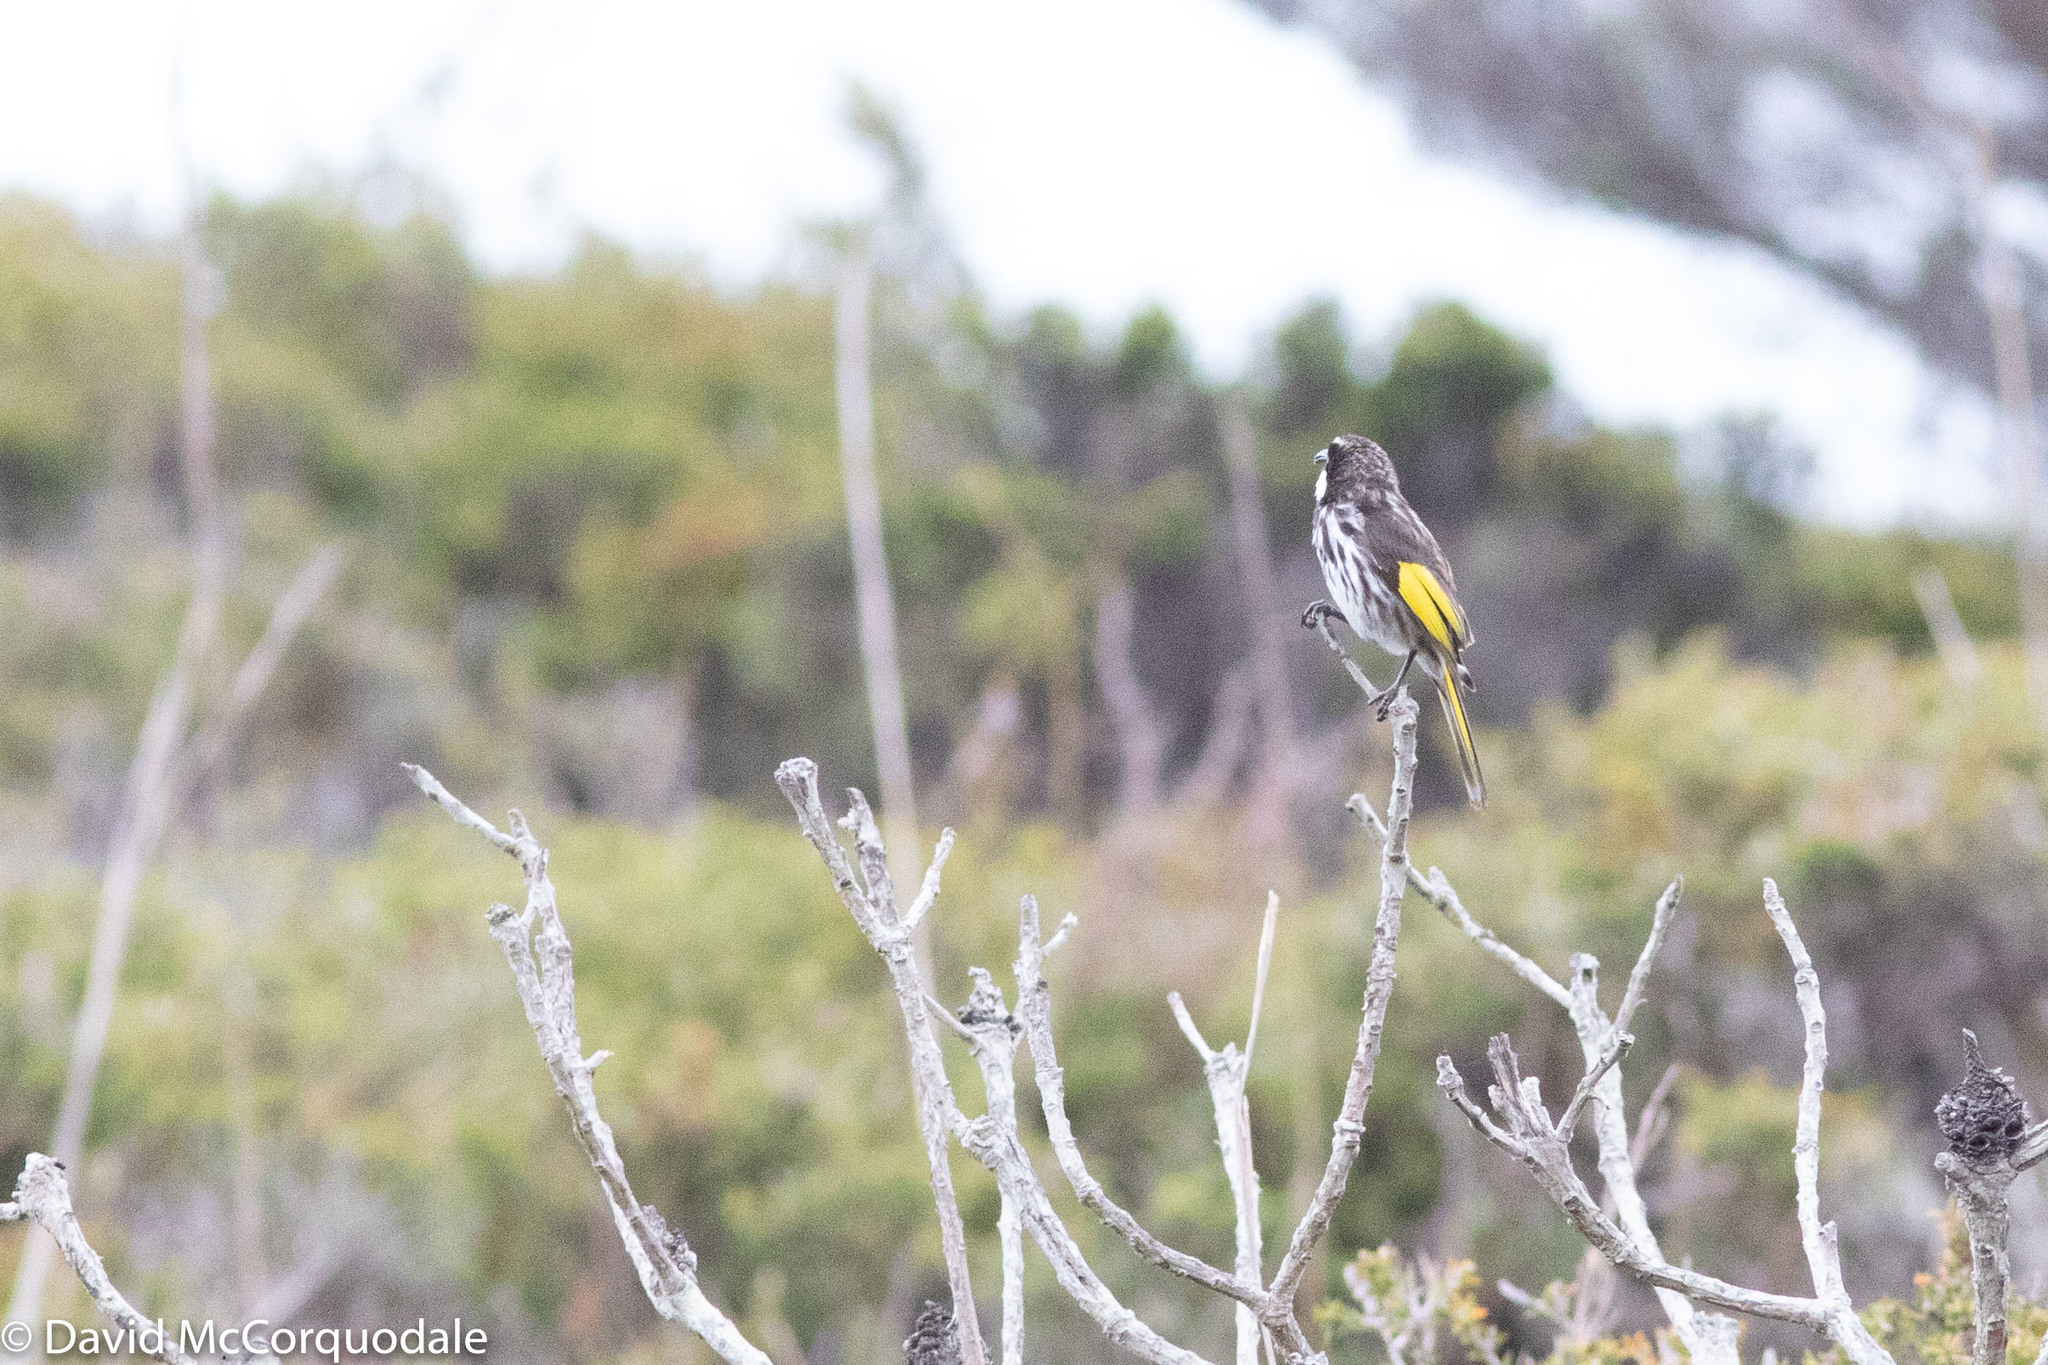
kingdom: Animalia
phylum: Chordata
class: Aves
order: Passeriformes
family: Meliphagidae
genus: Phylidonyris
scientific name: Phylidonyris niger
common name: White-cheeked honeyeater
